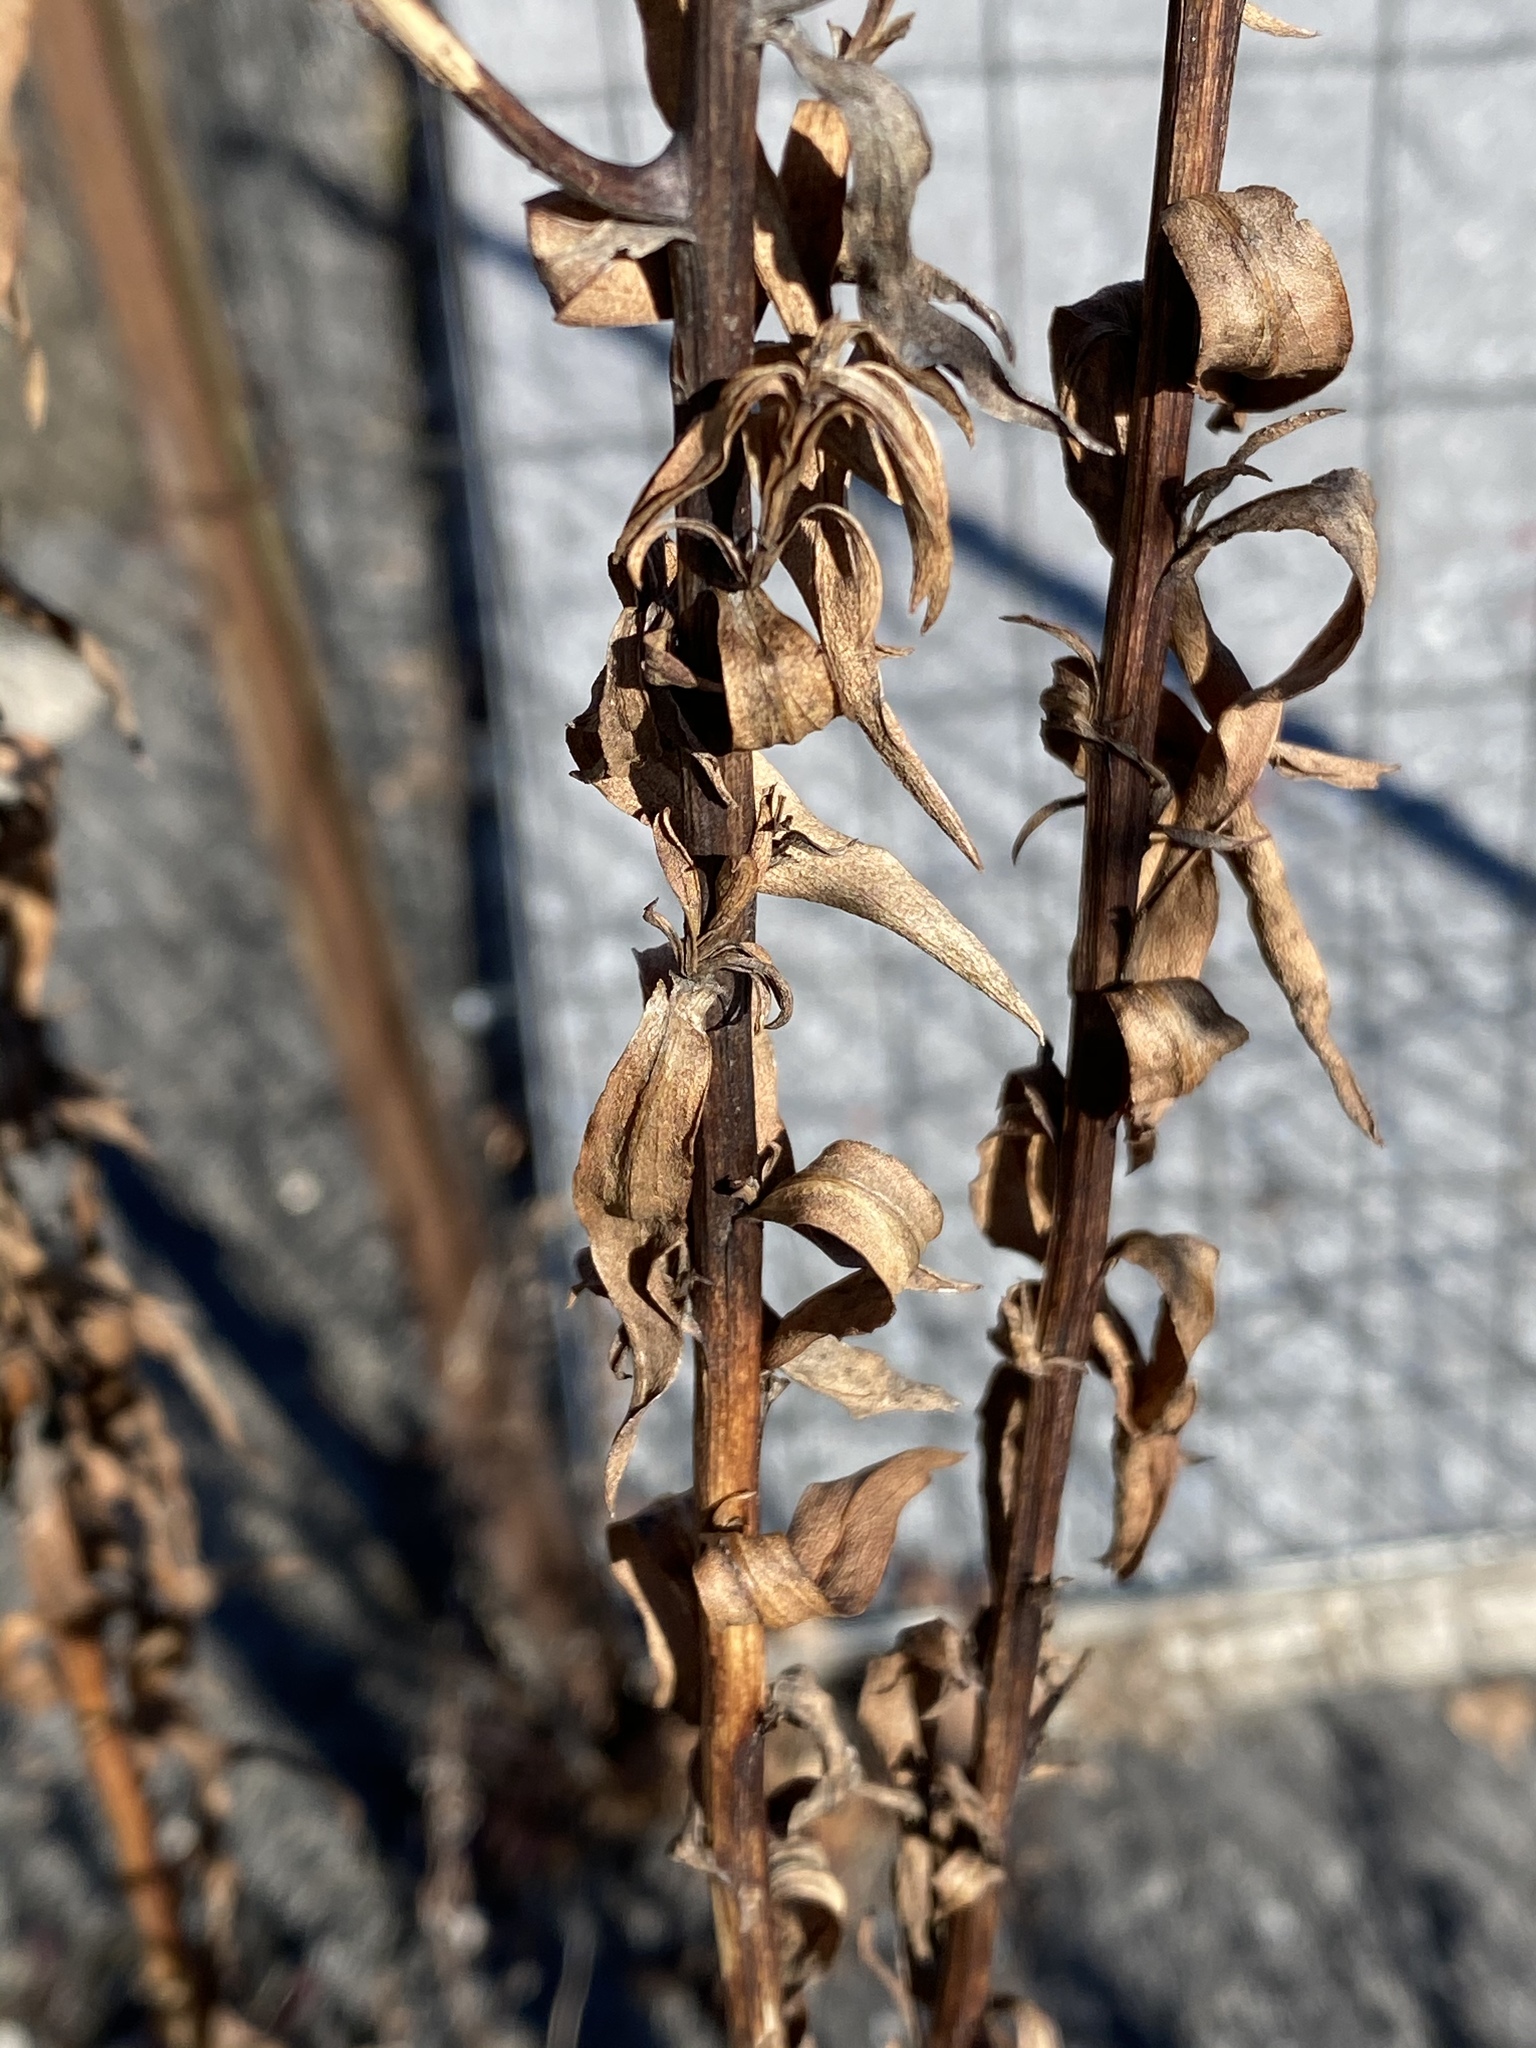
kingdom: Plantae
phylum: Tracheophyta
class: Magnoliopsida
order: Asterales
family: Asteraceae
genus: Solidago
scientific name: Solidago sempervirens
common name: Salt-marsh goldenrod
